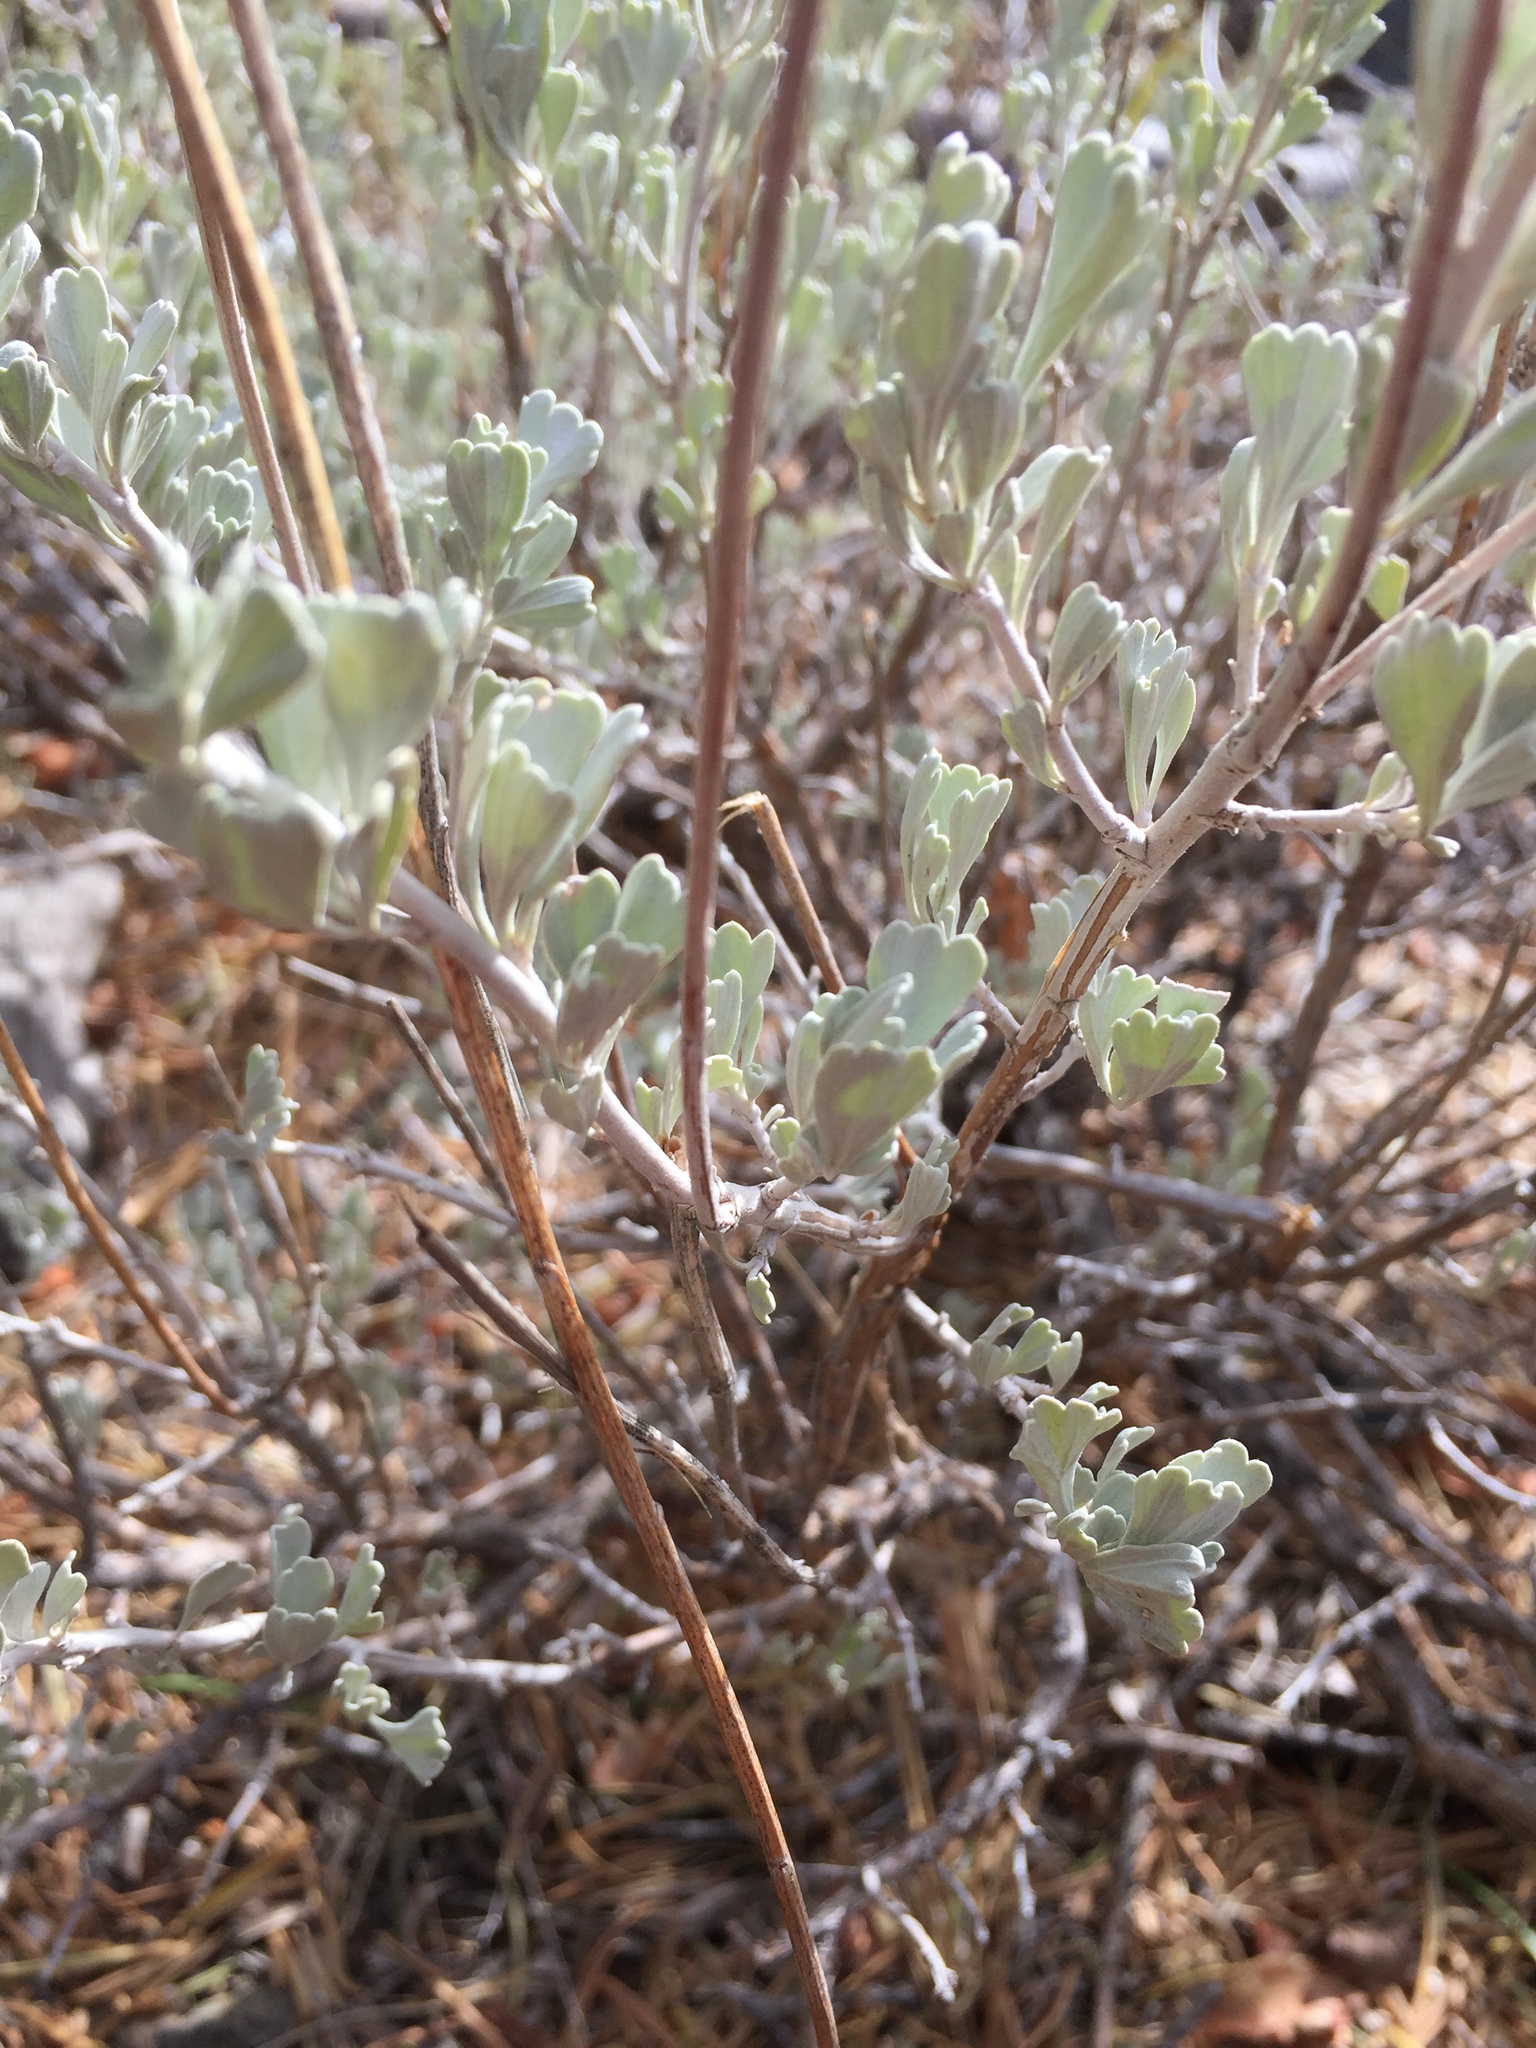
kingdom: Plantae
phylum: Tracheophyta
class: Magnoliopsida
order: Asterales
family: Asteraceae
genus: Artemisia
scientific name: Artemisia tridentata
